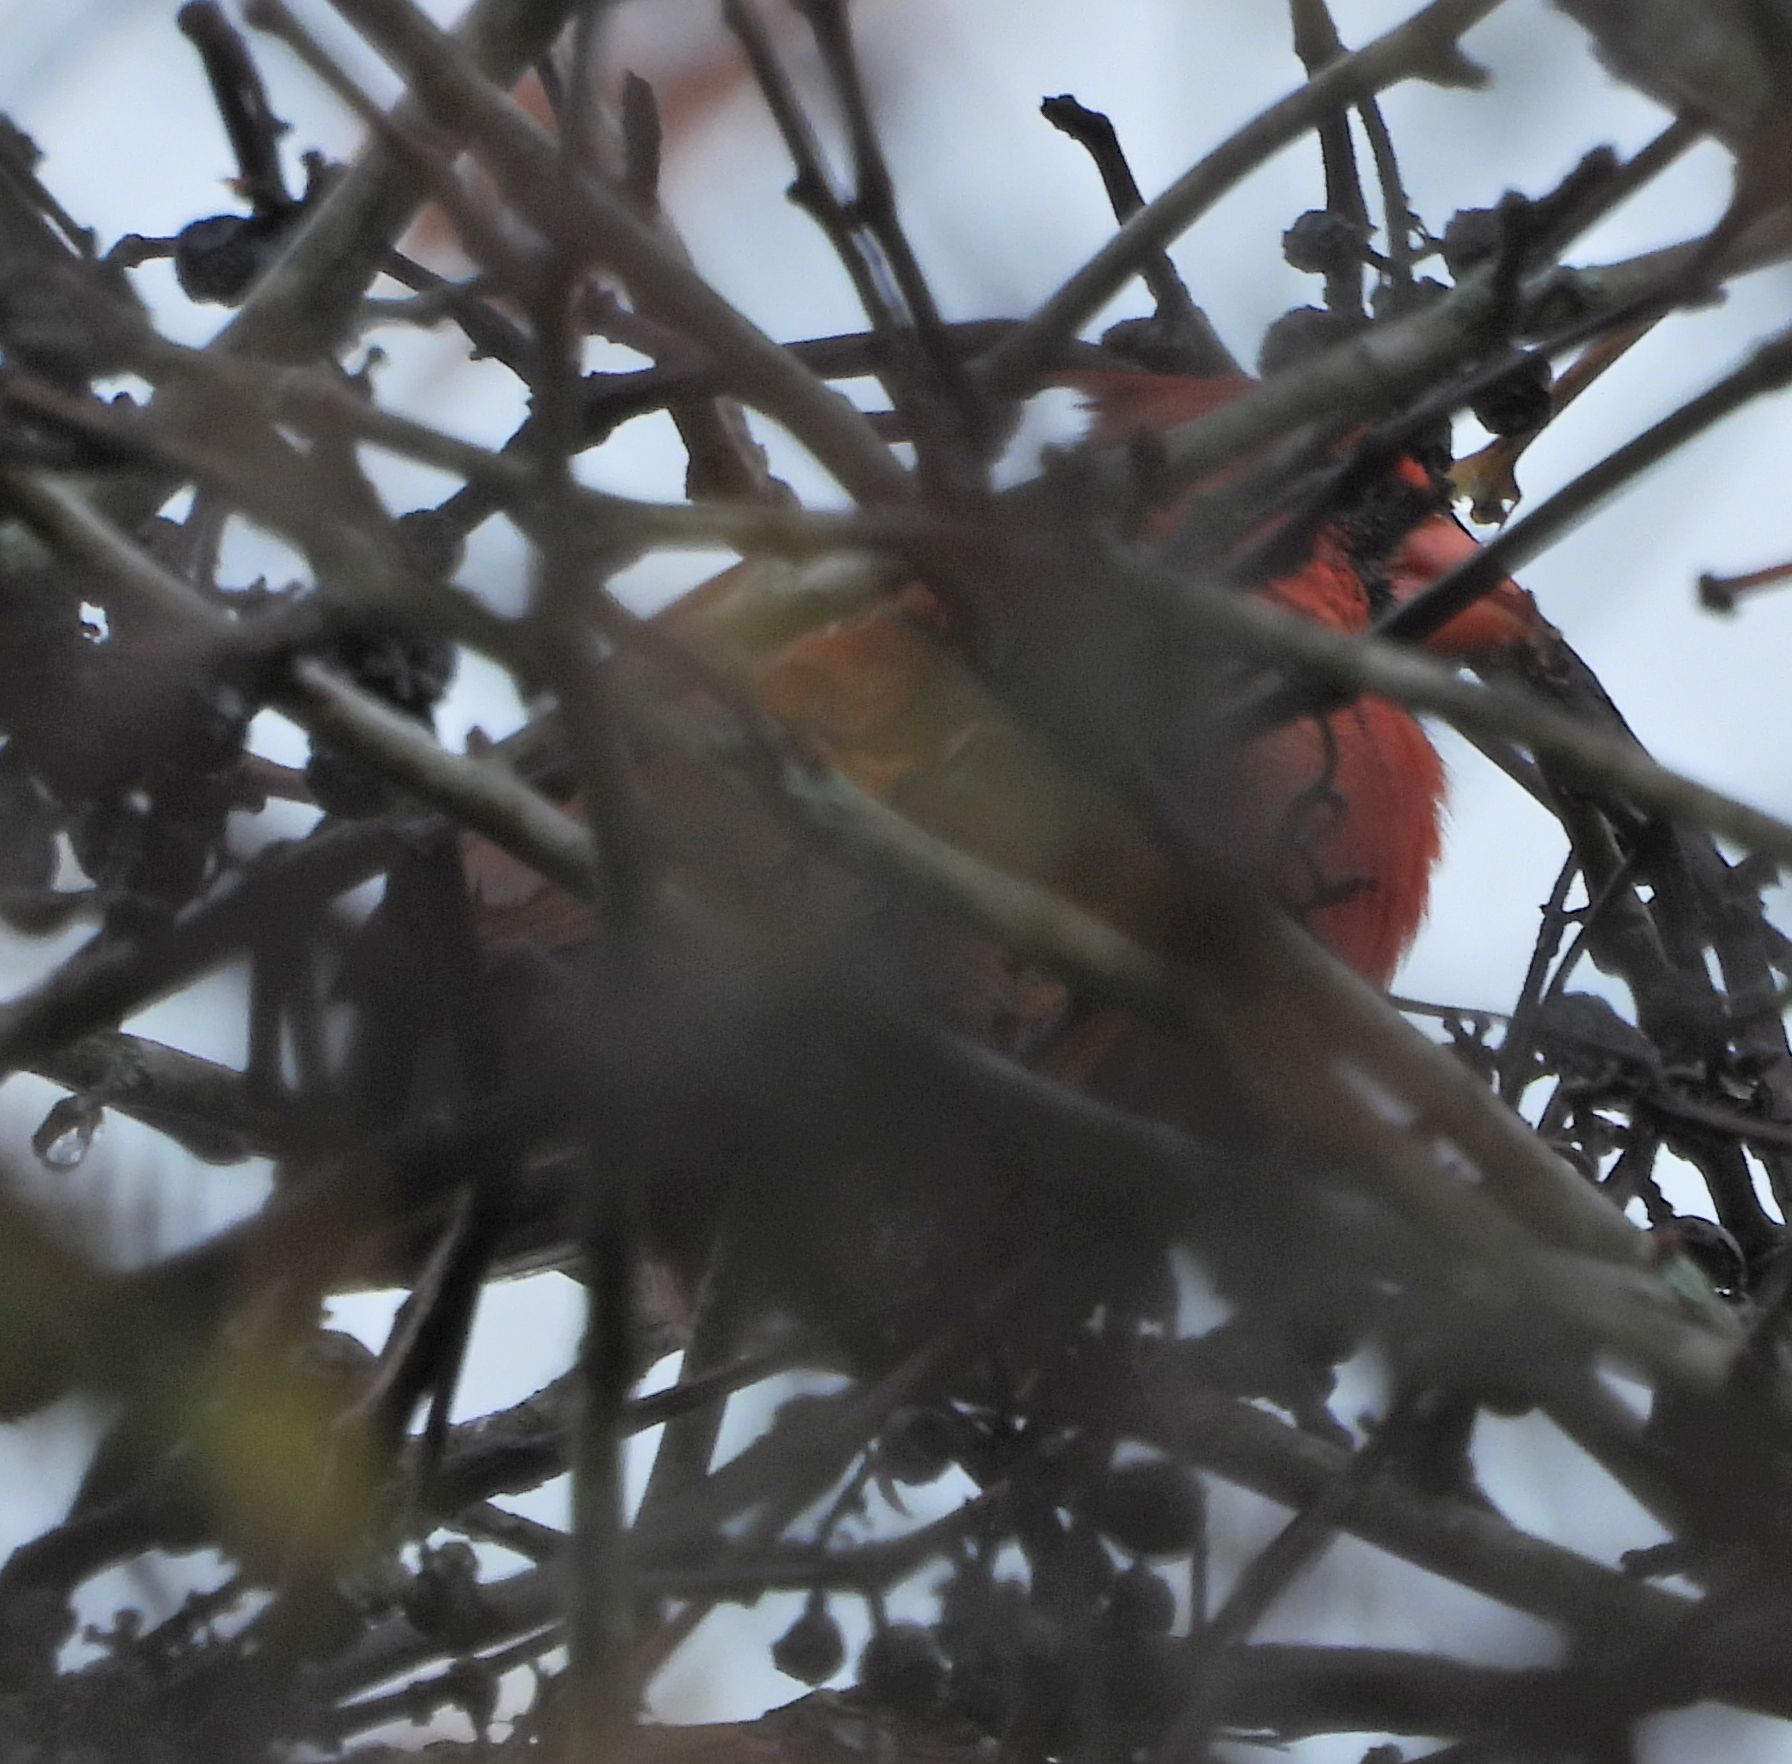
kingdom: Animalia
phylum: Chordata
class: Aves
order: Passeriformes
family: Cardinalidae
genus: Cardinalis
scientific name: Cardinalis cardinalis
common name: Northern cardinal
